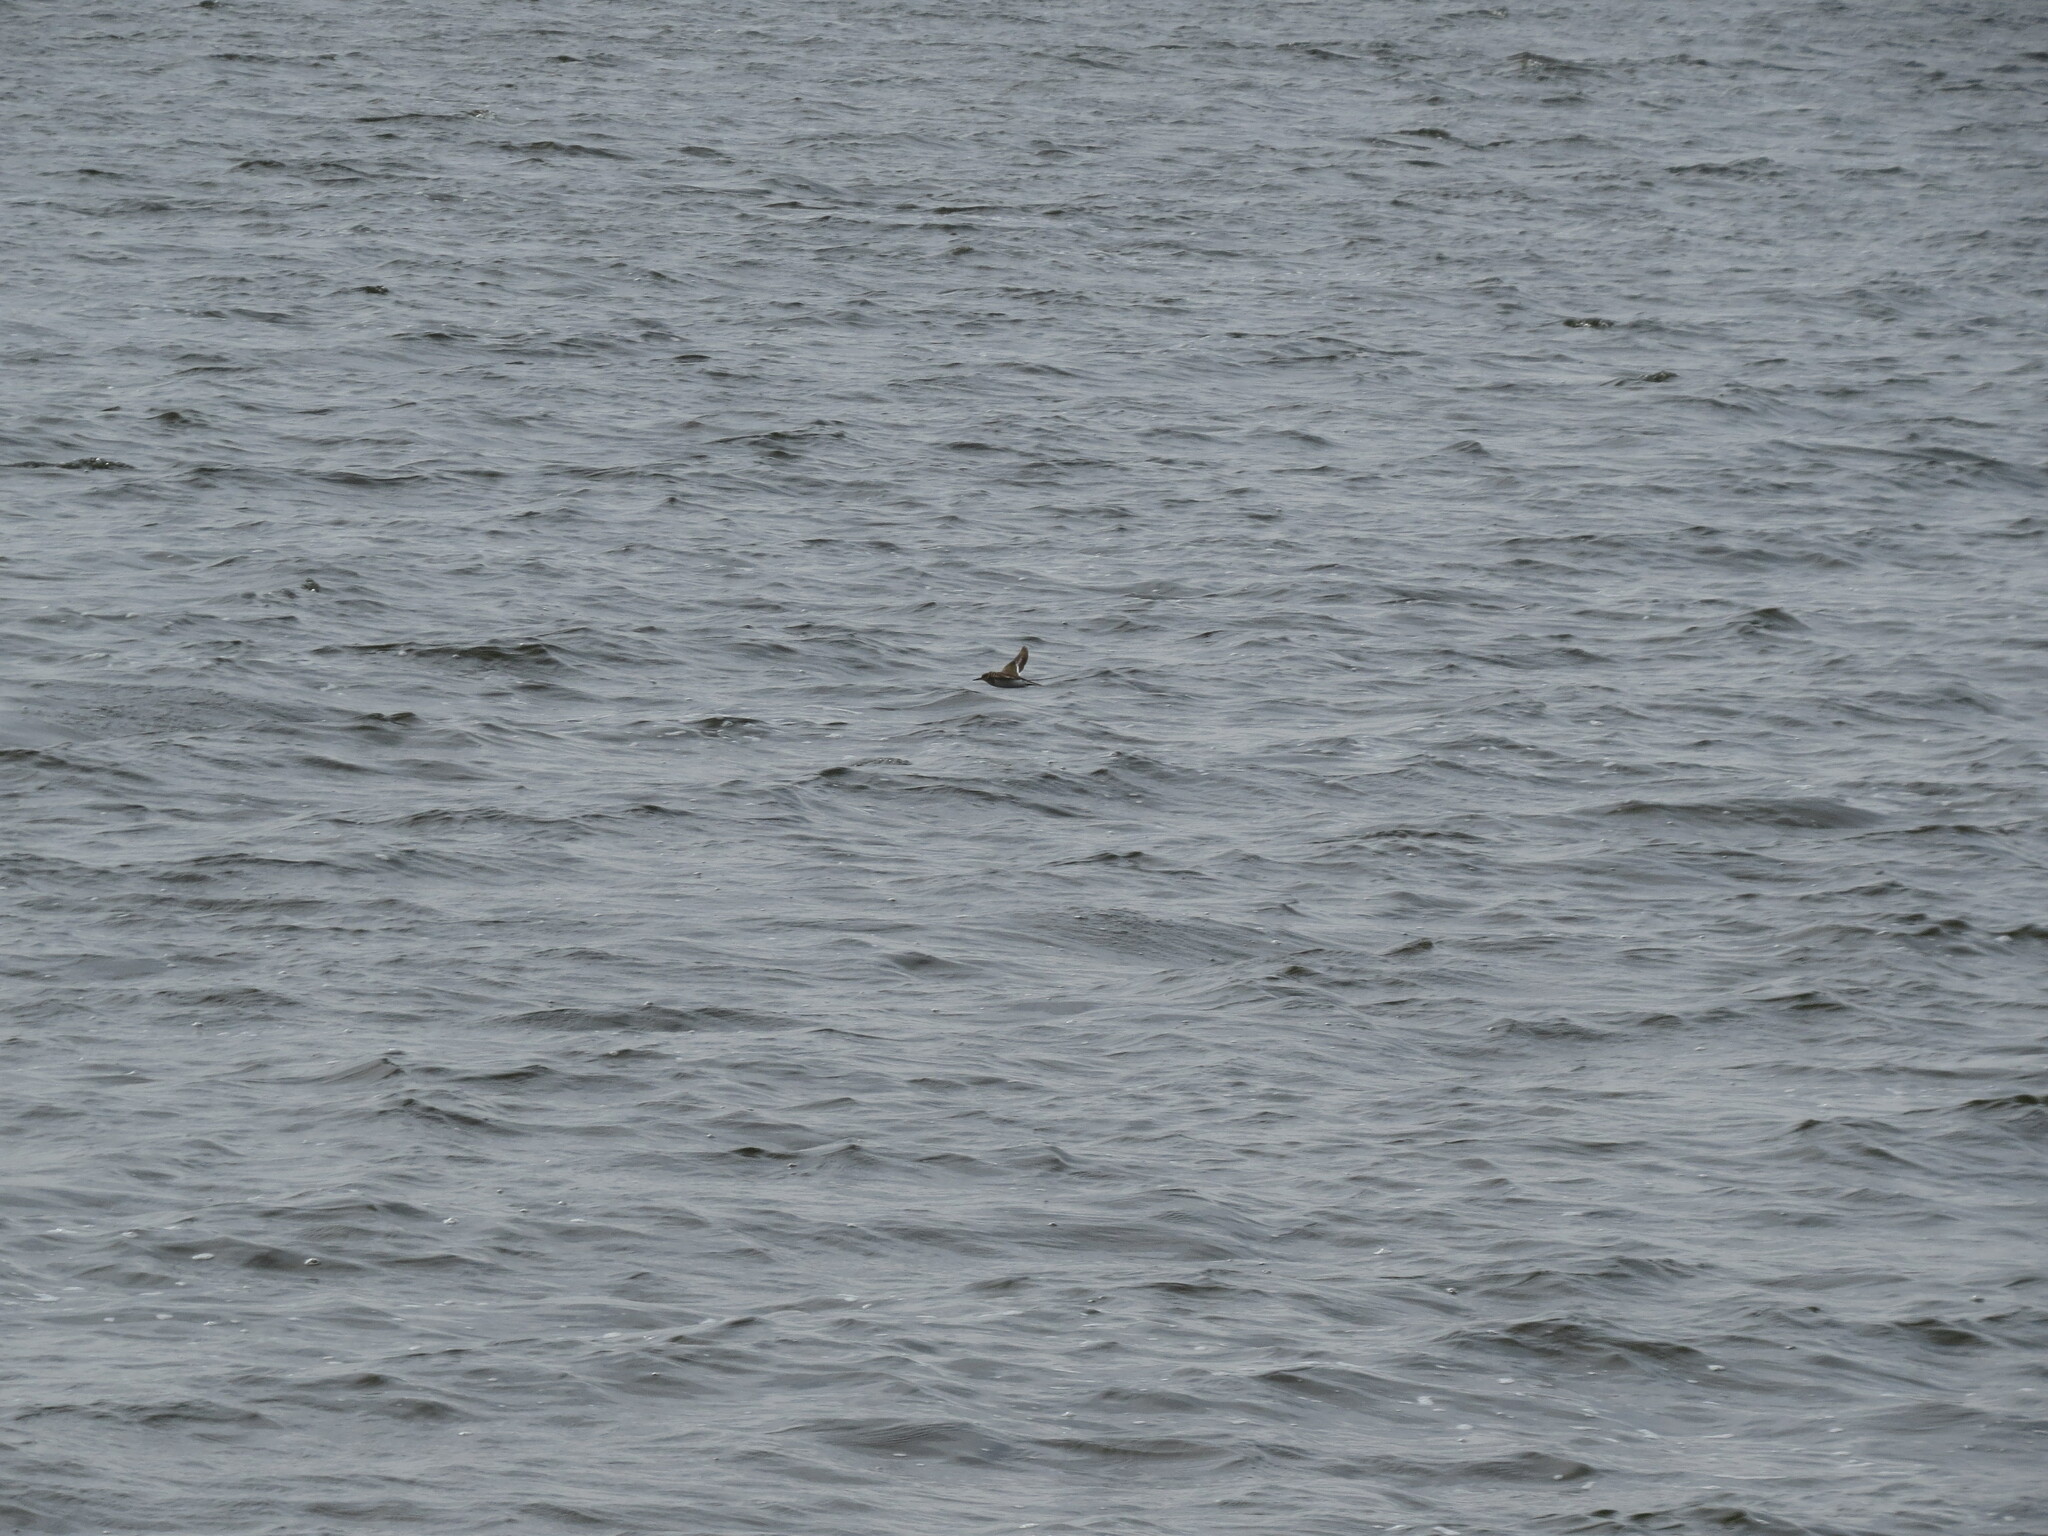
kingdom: Animalia
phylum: Chordata
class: Aves
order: Charadriiformes
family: Scolopacidae
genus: Actitis
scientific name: Actitis hypoleucos
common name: Common sandpiper
